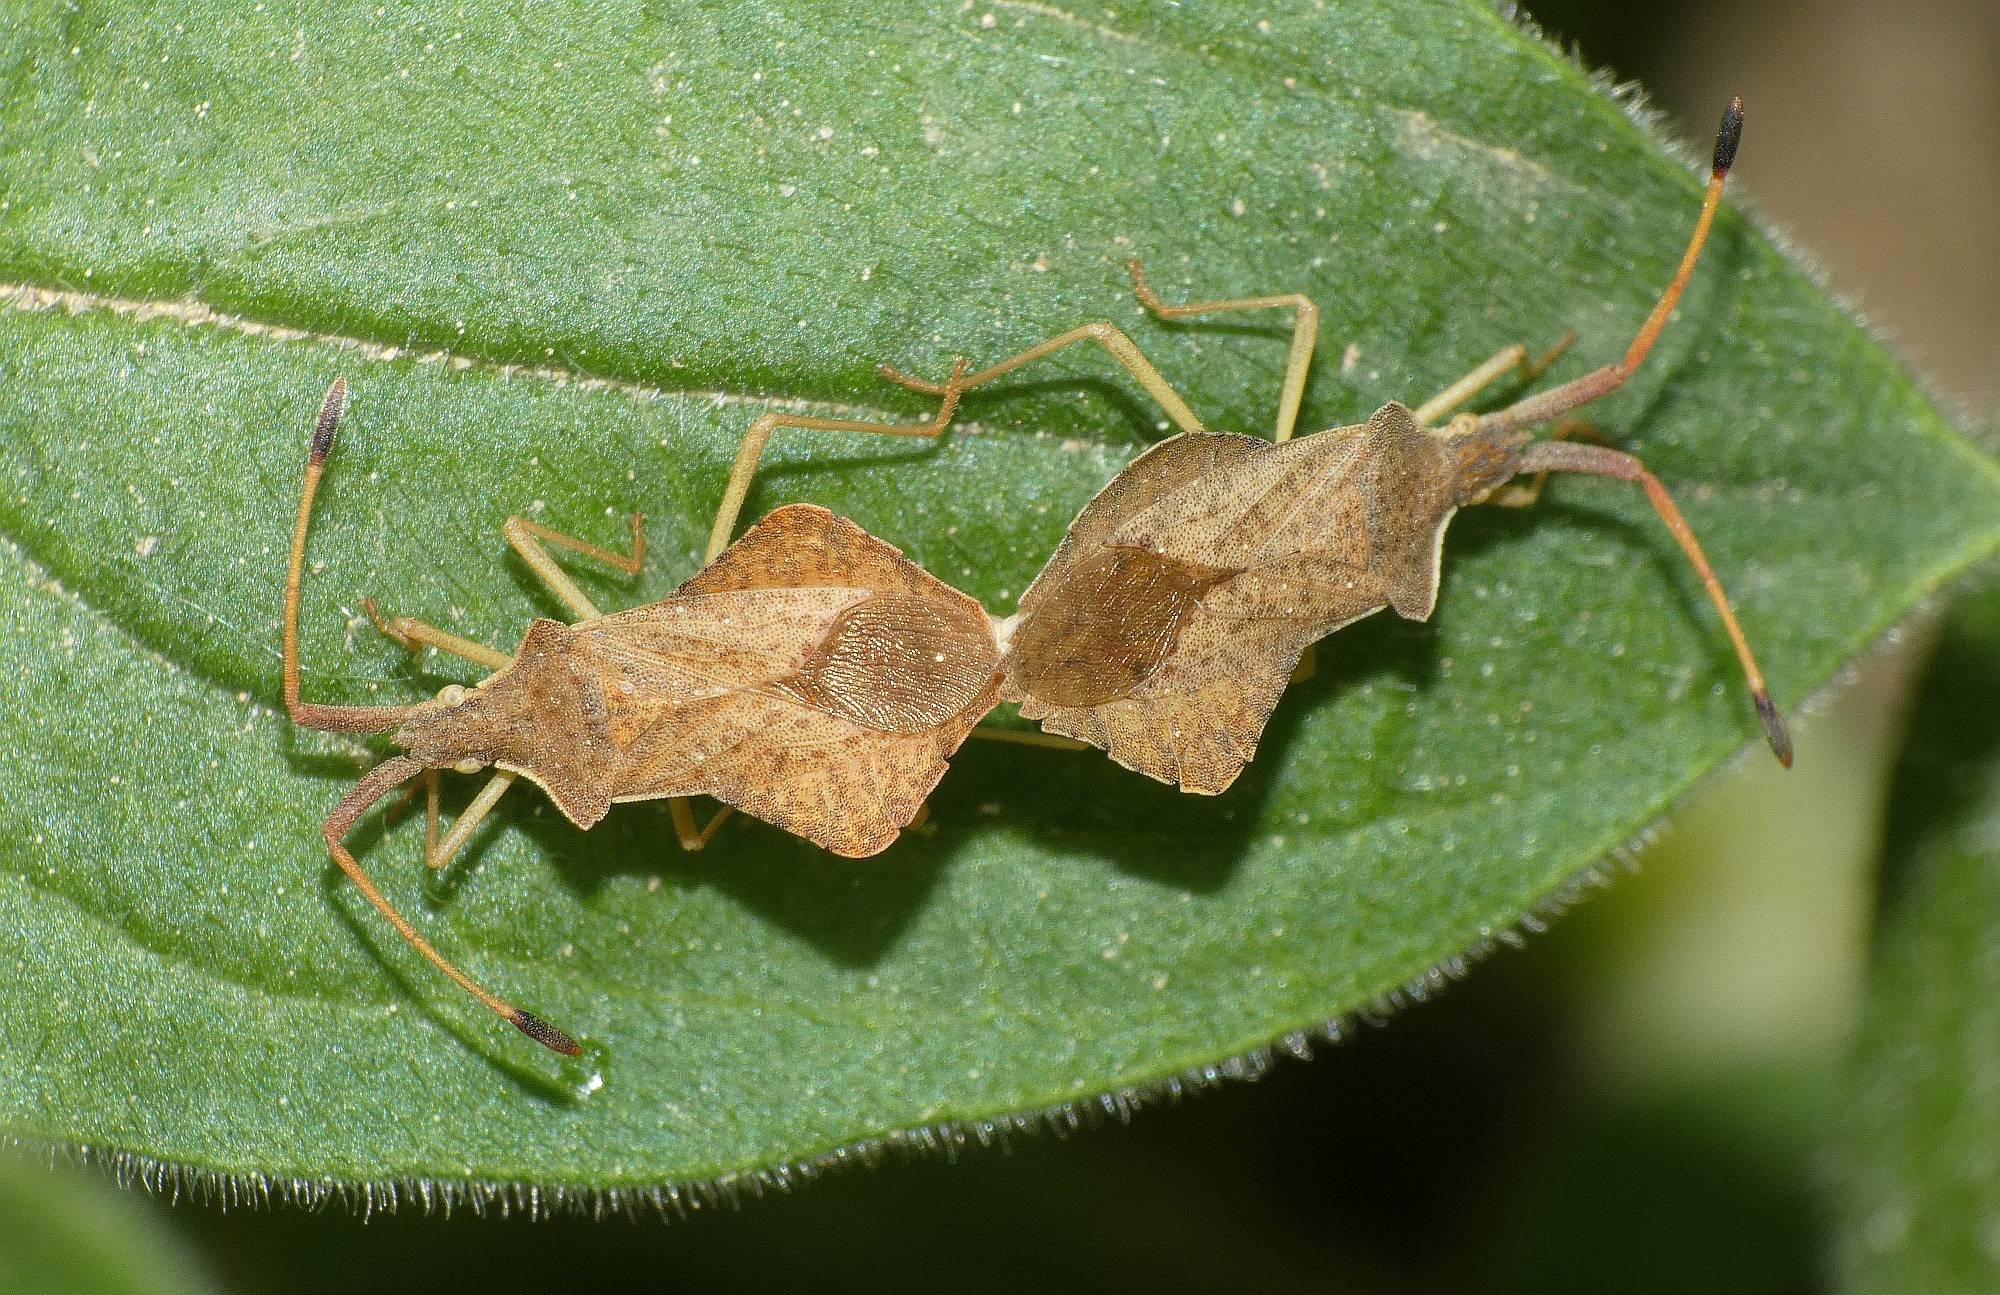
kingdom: Animalia
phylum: Arthropoda
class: Insecta
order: Hemiptera
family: Coreidae
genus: Syromastus
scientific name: Syromastus rhombeus
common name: Rhombic leatherbug
